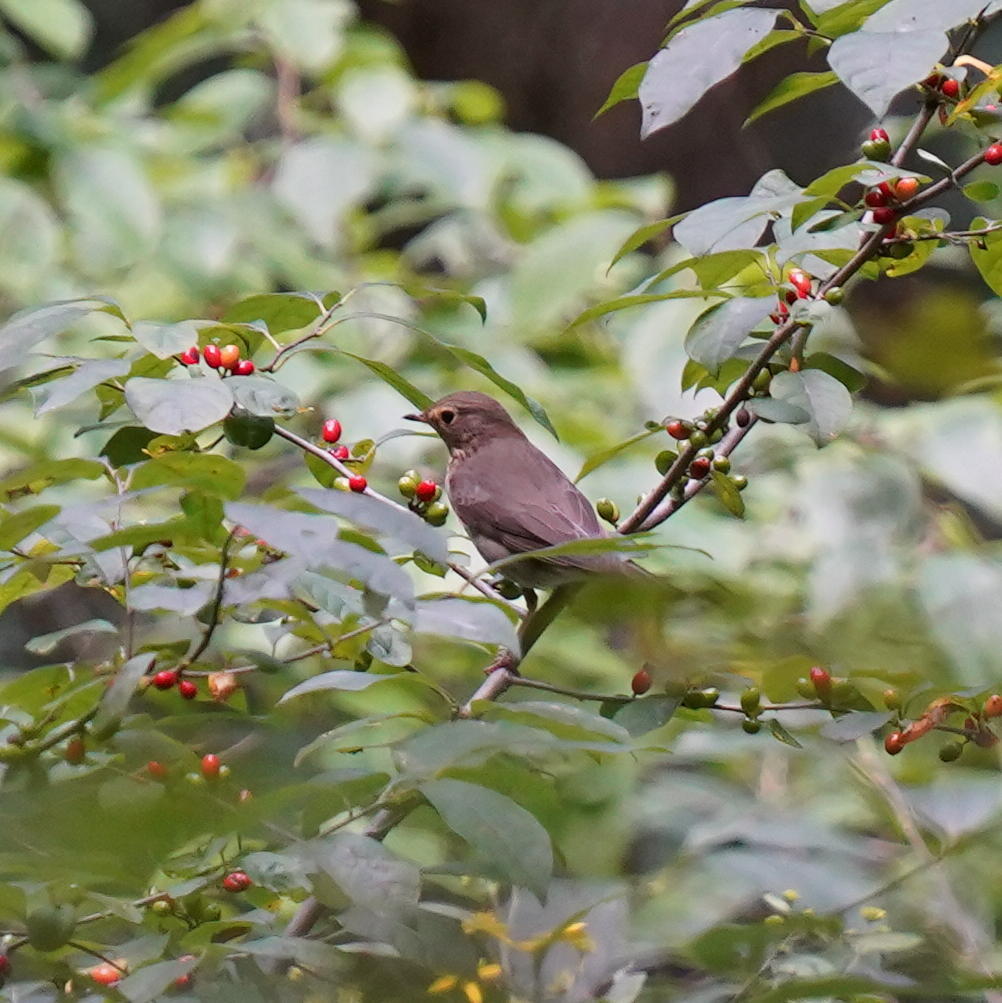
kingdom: Animalia
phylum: Chordata
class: Aves
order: Passeriformes
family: Turdidae
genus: Catharus
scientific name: Catharus ustulatus
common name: Swainson's thrush
